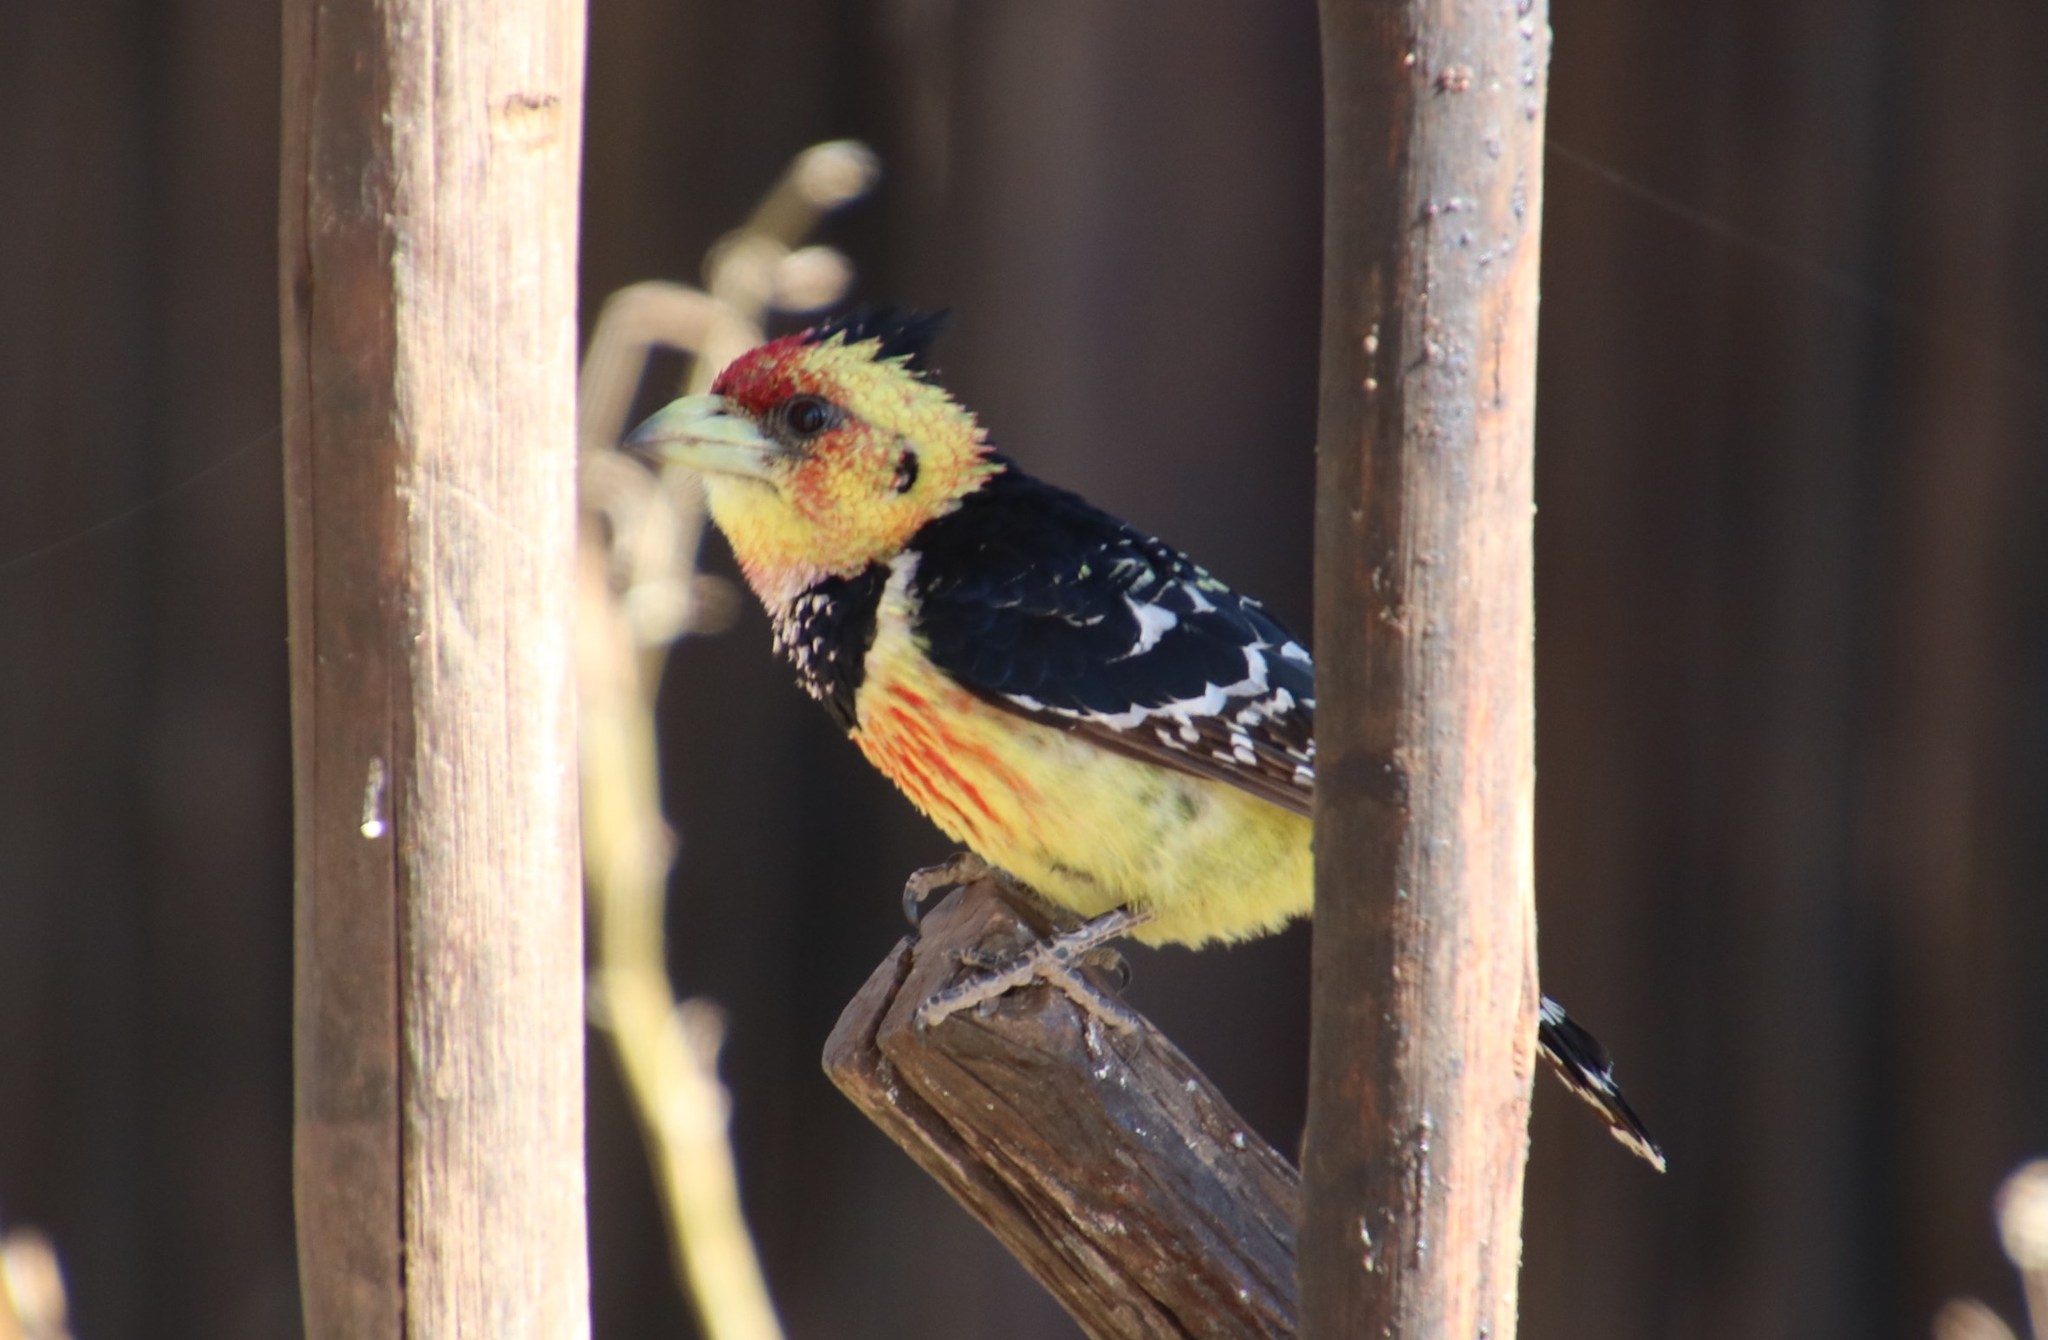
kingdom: Animalia
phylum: Chordata
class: Aves
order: Piciformes
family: Lybiidae
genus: Trachyphonus
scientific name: Trachyphonus vaillantii
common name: Crested barbet
